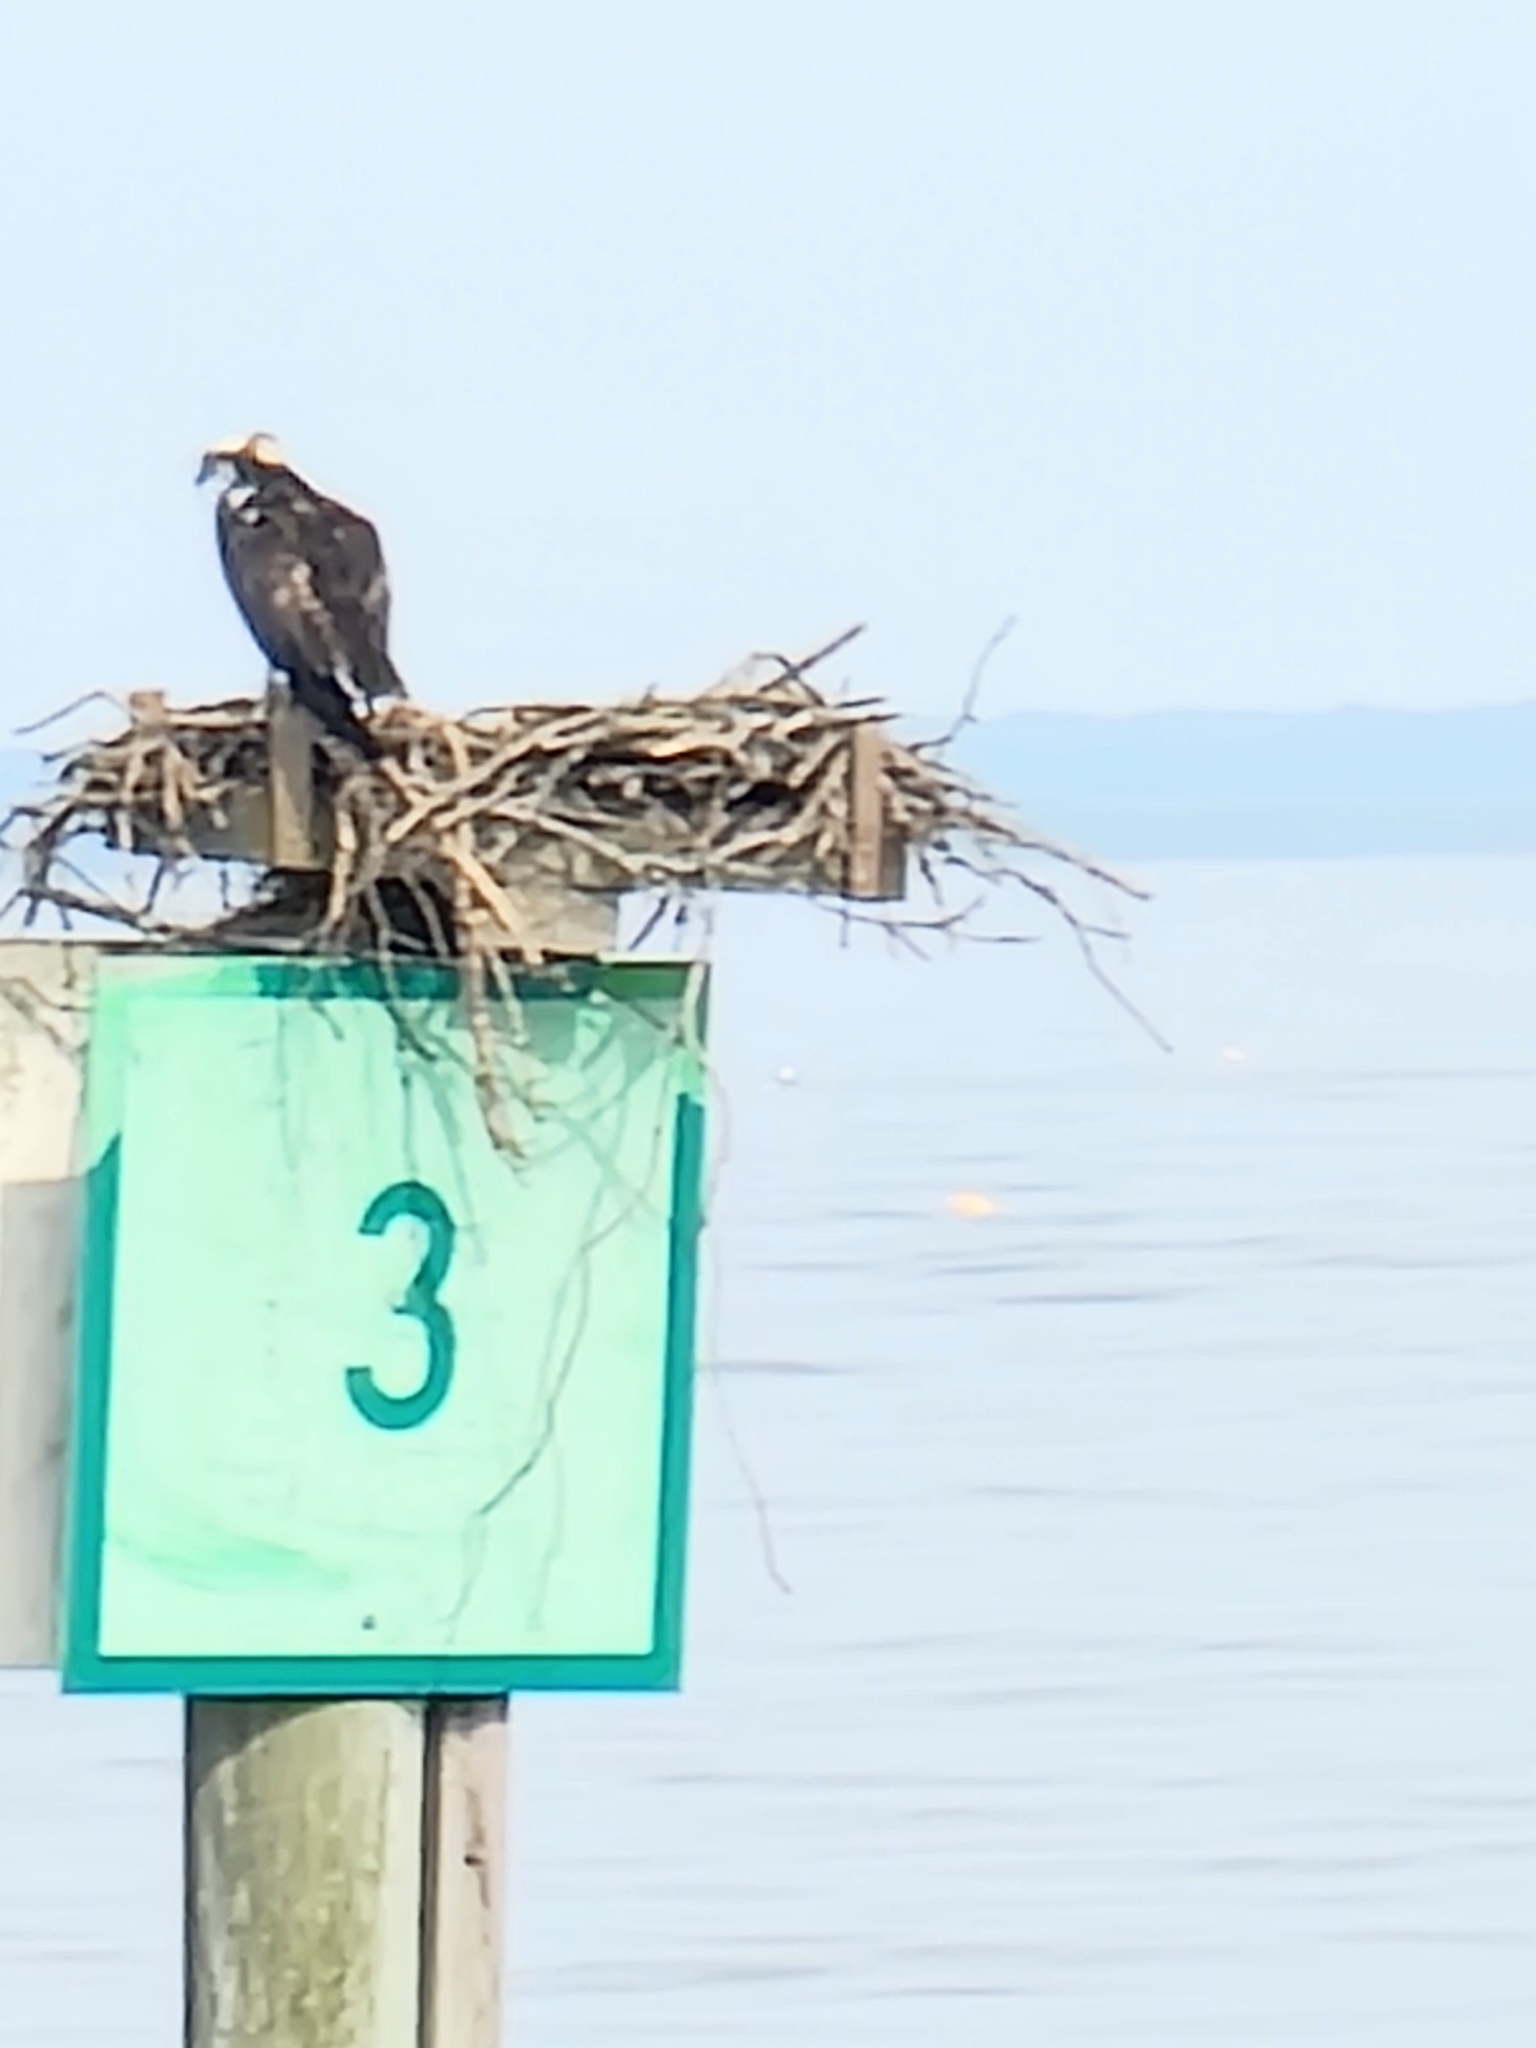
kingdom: Animalia
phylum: Chordata
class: Aves
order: Accipitriformes
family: Pandionidae
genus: Pandion
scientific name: Pandion haliaetus
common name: Osprey
